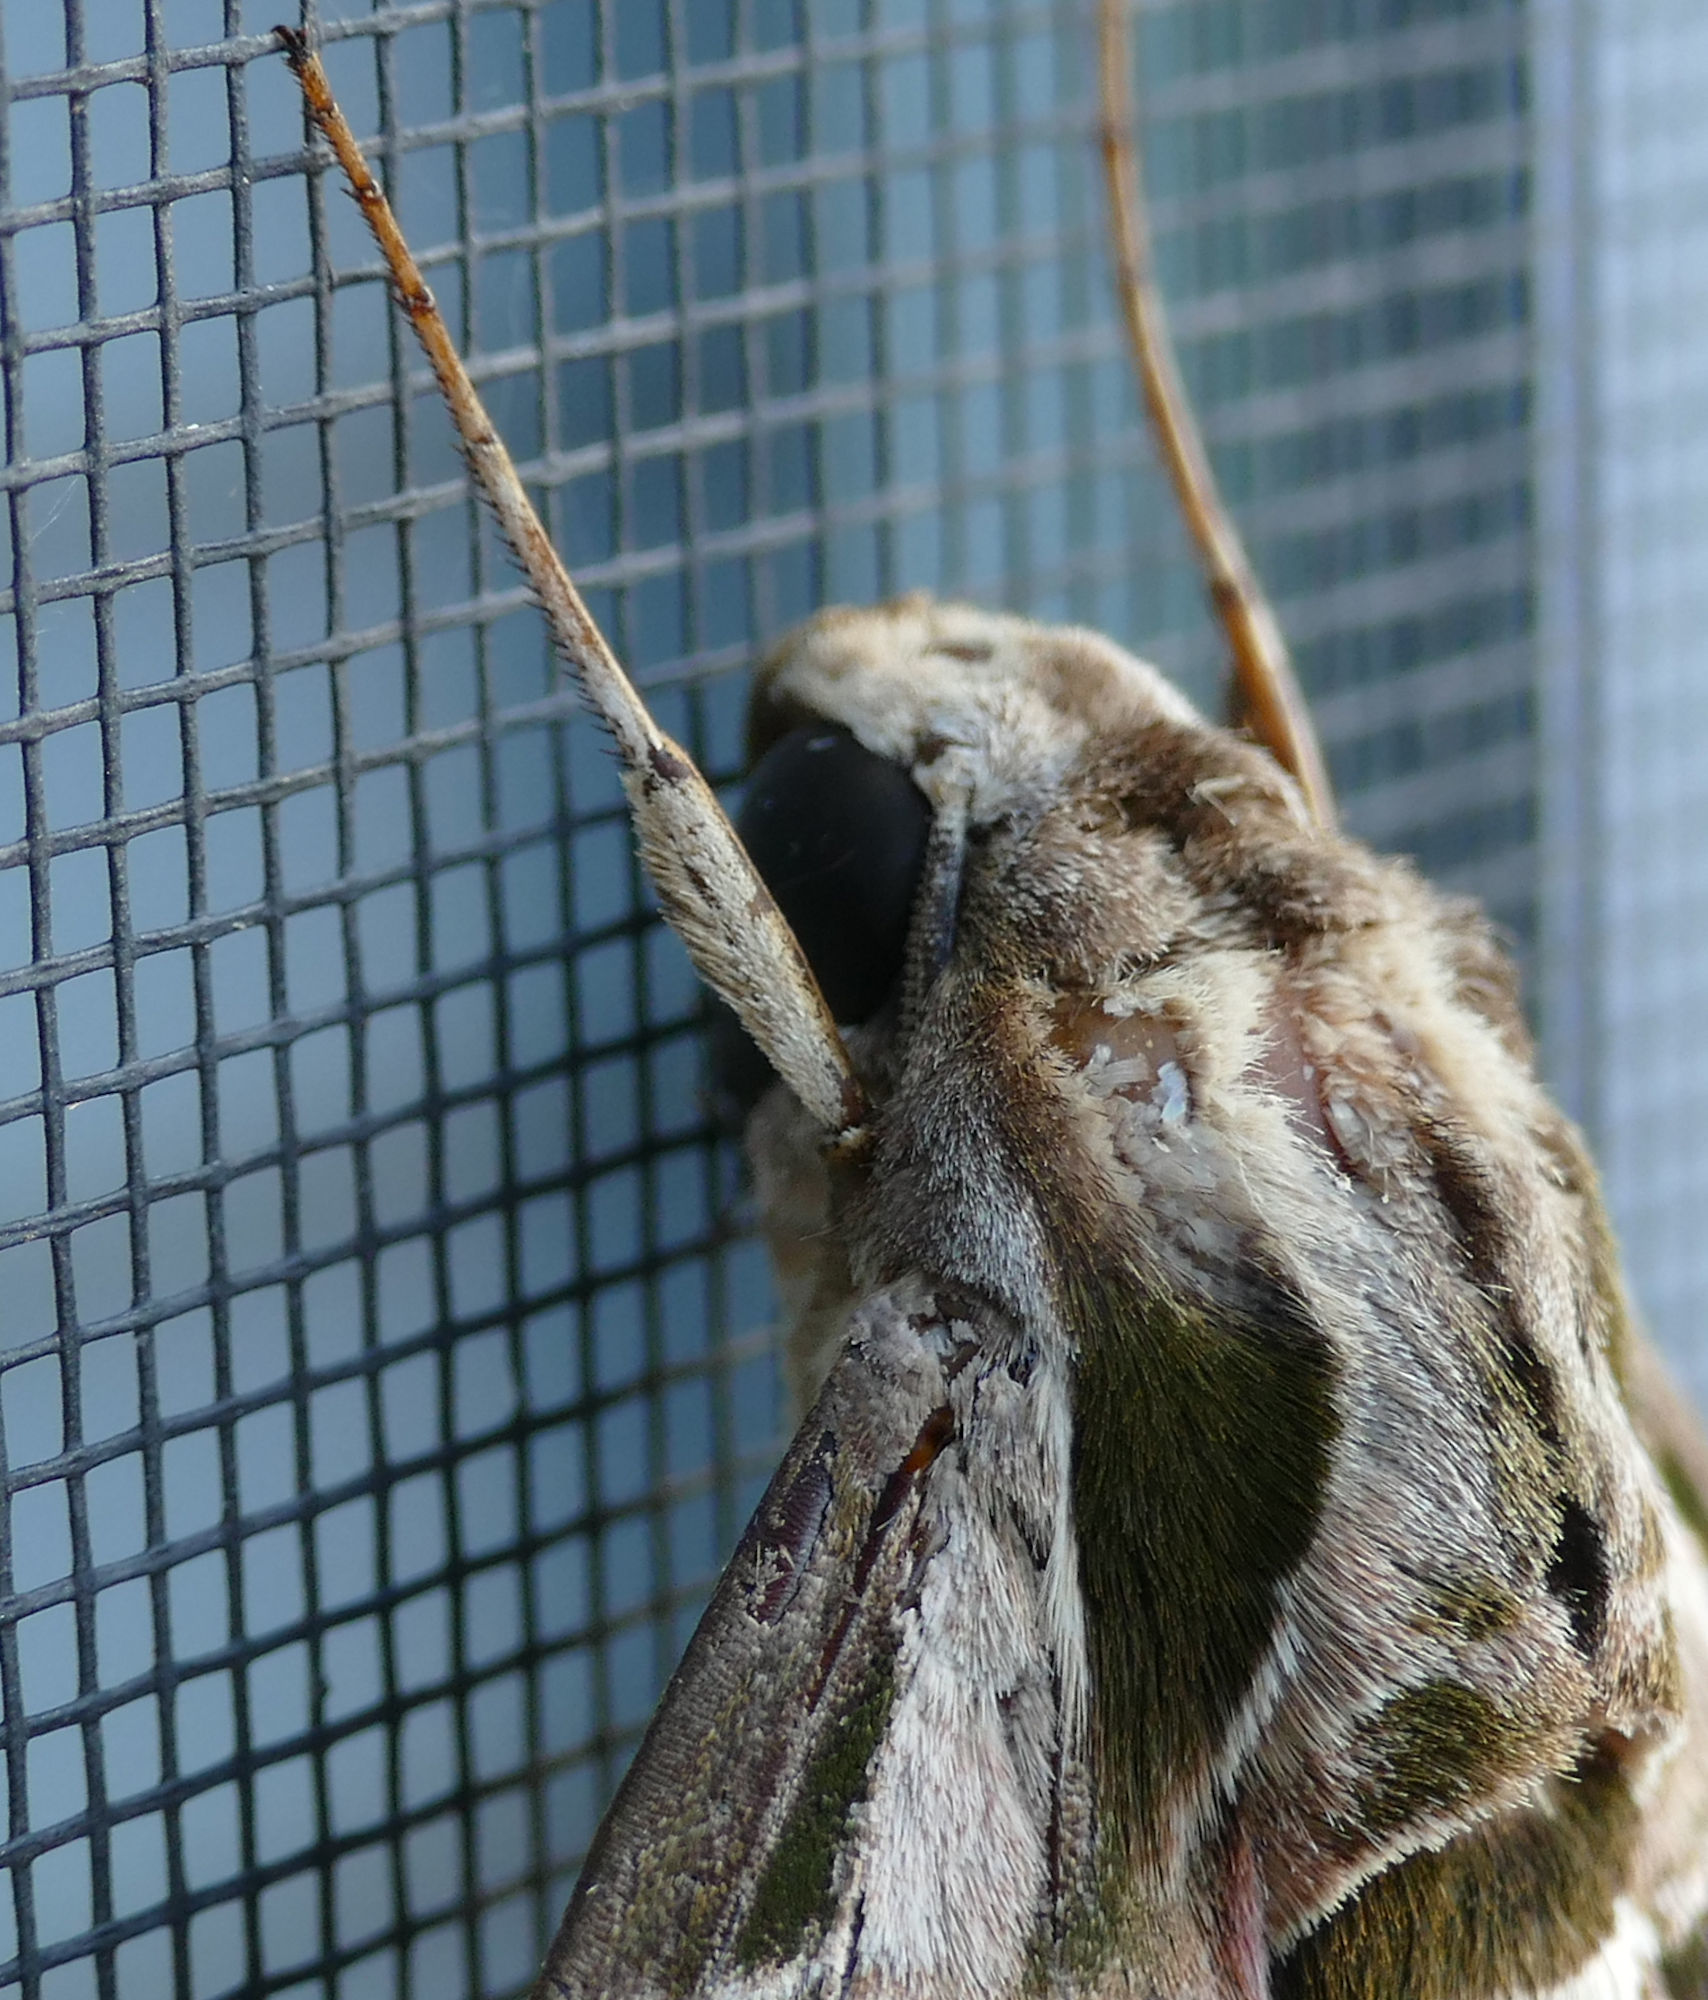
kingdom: Animalia
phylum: Arthropoda
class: Insecta
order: Lepidoptera
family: Sphingidae
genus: Eumorpha
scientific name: Eumorpha vitis
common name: Vine sphinx
